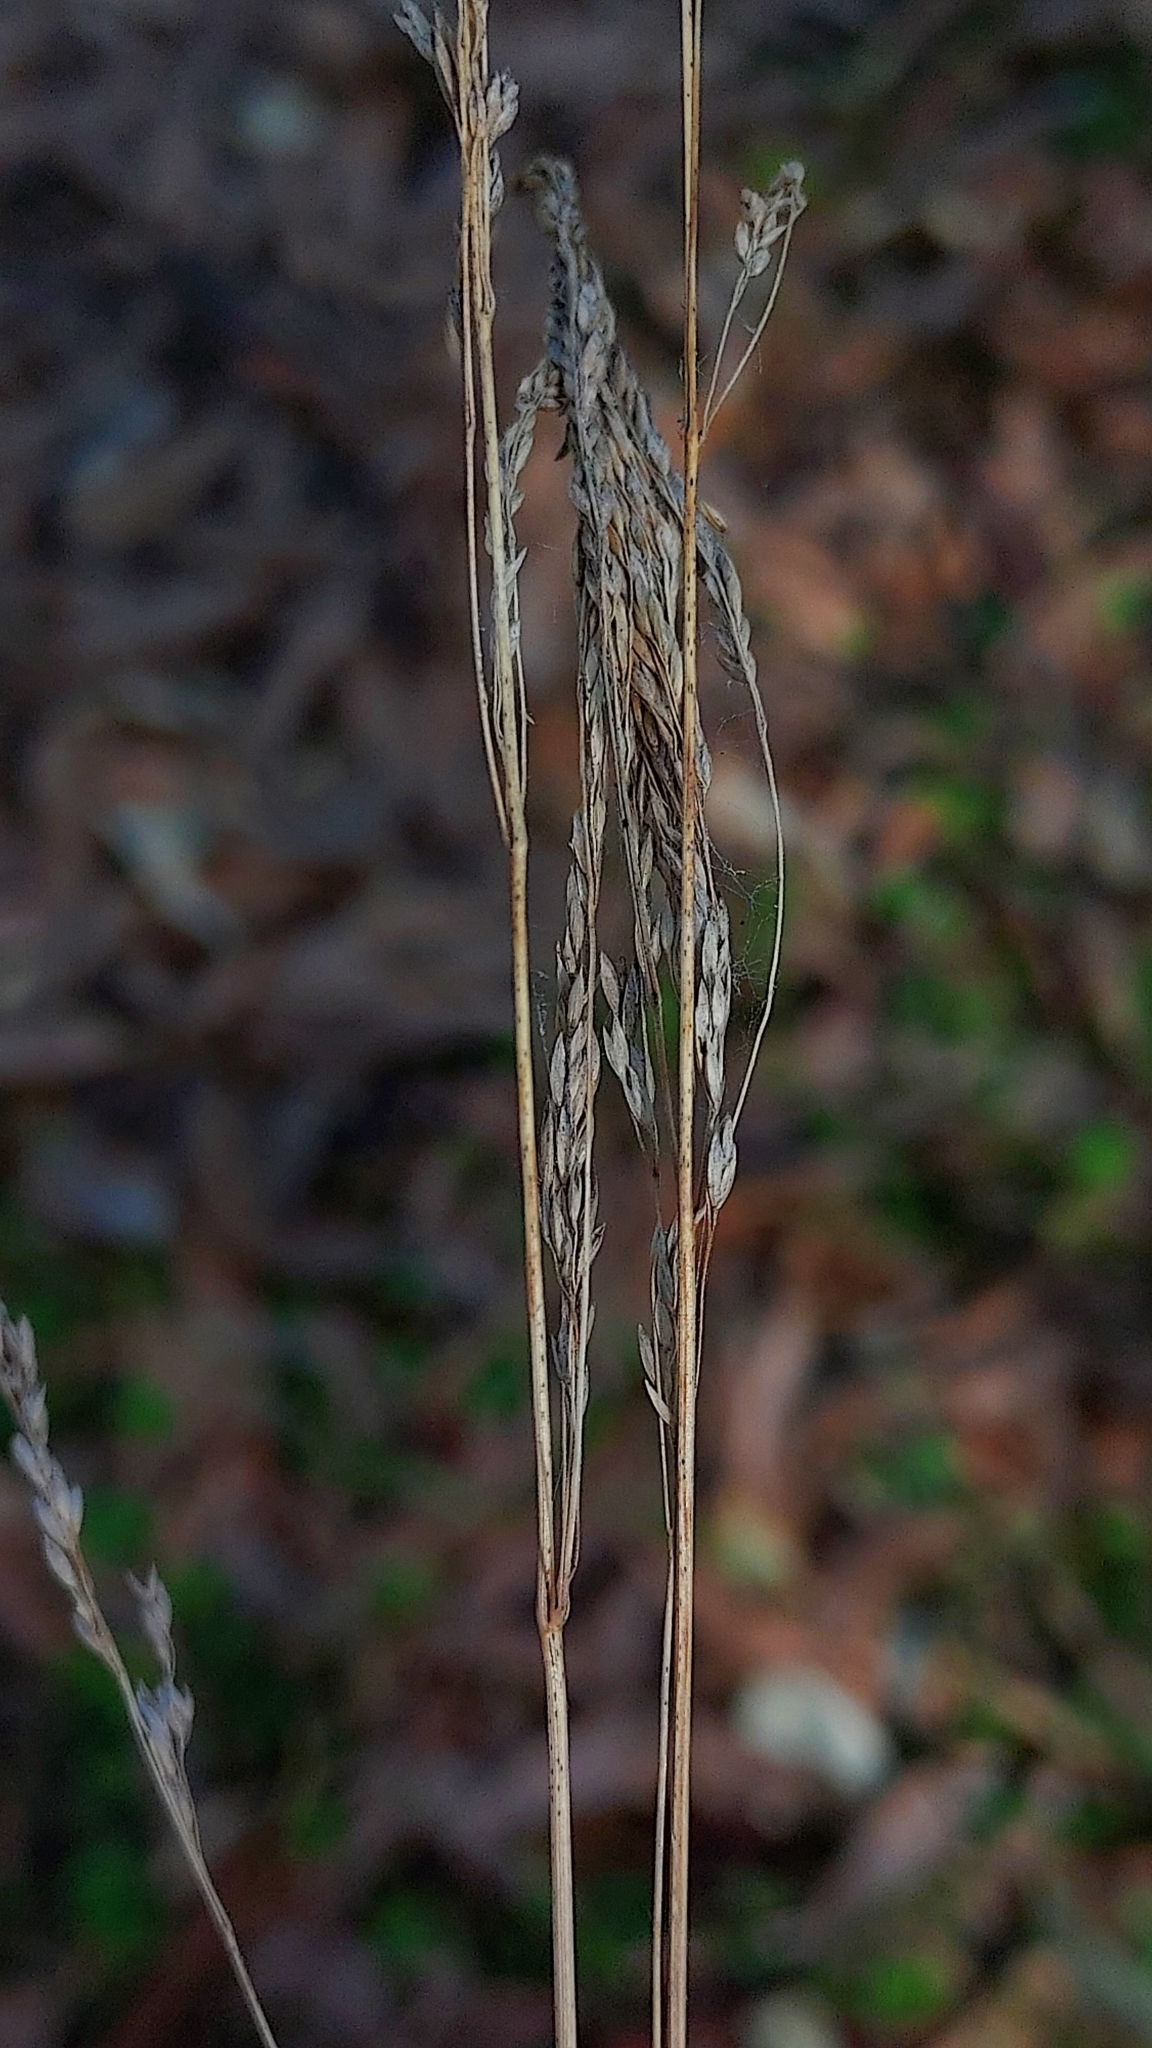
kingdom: Plantae
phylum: Tracheophyta
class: Liliopsida
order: Poales
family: Poaceae
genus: Poa
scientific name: Poa
